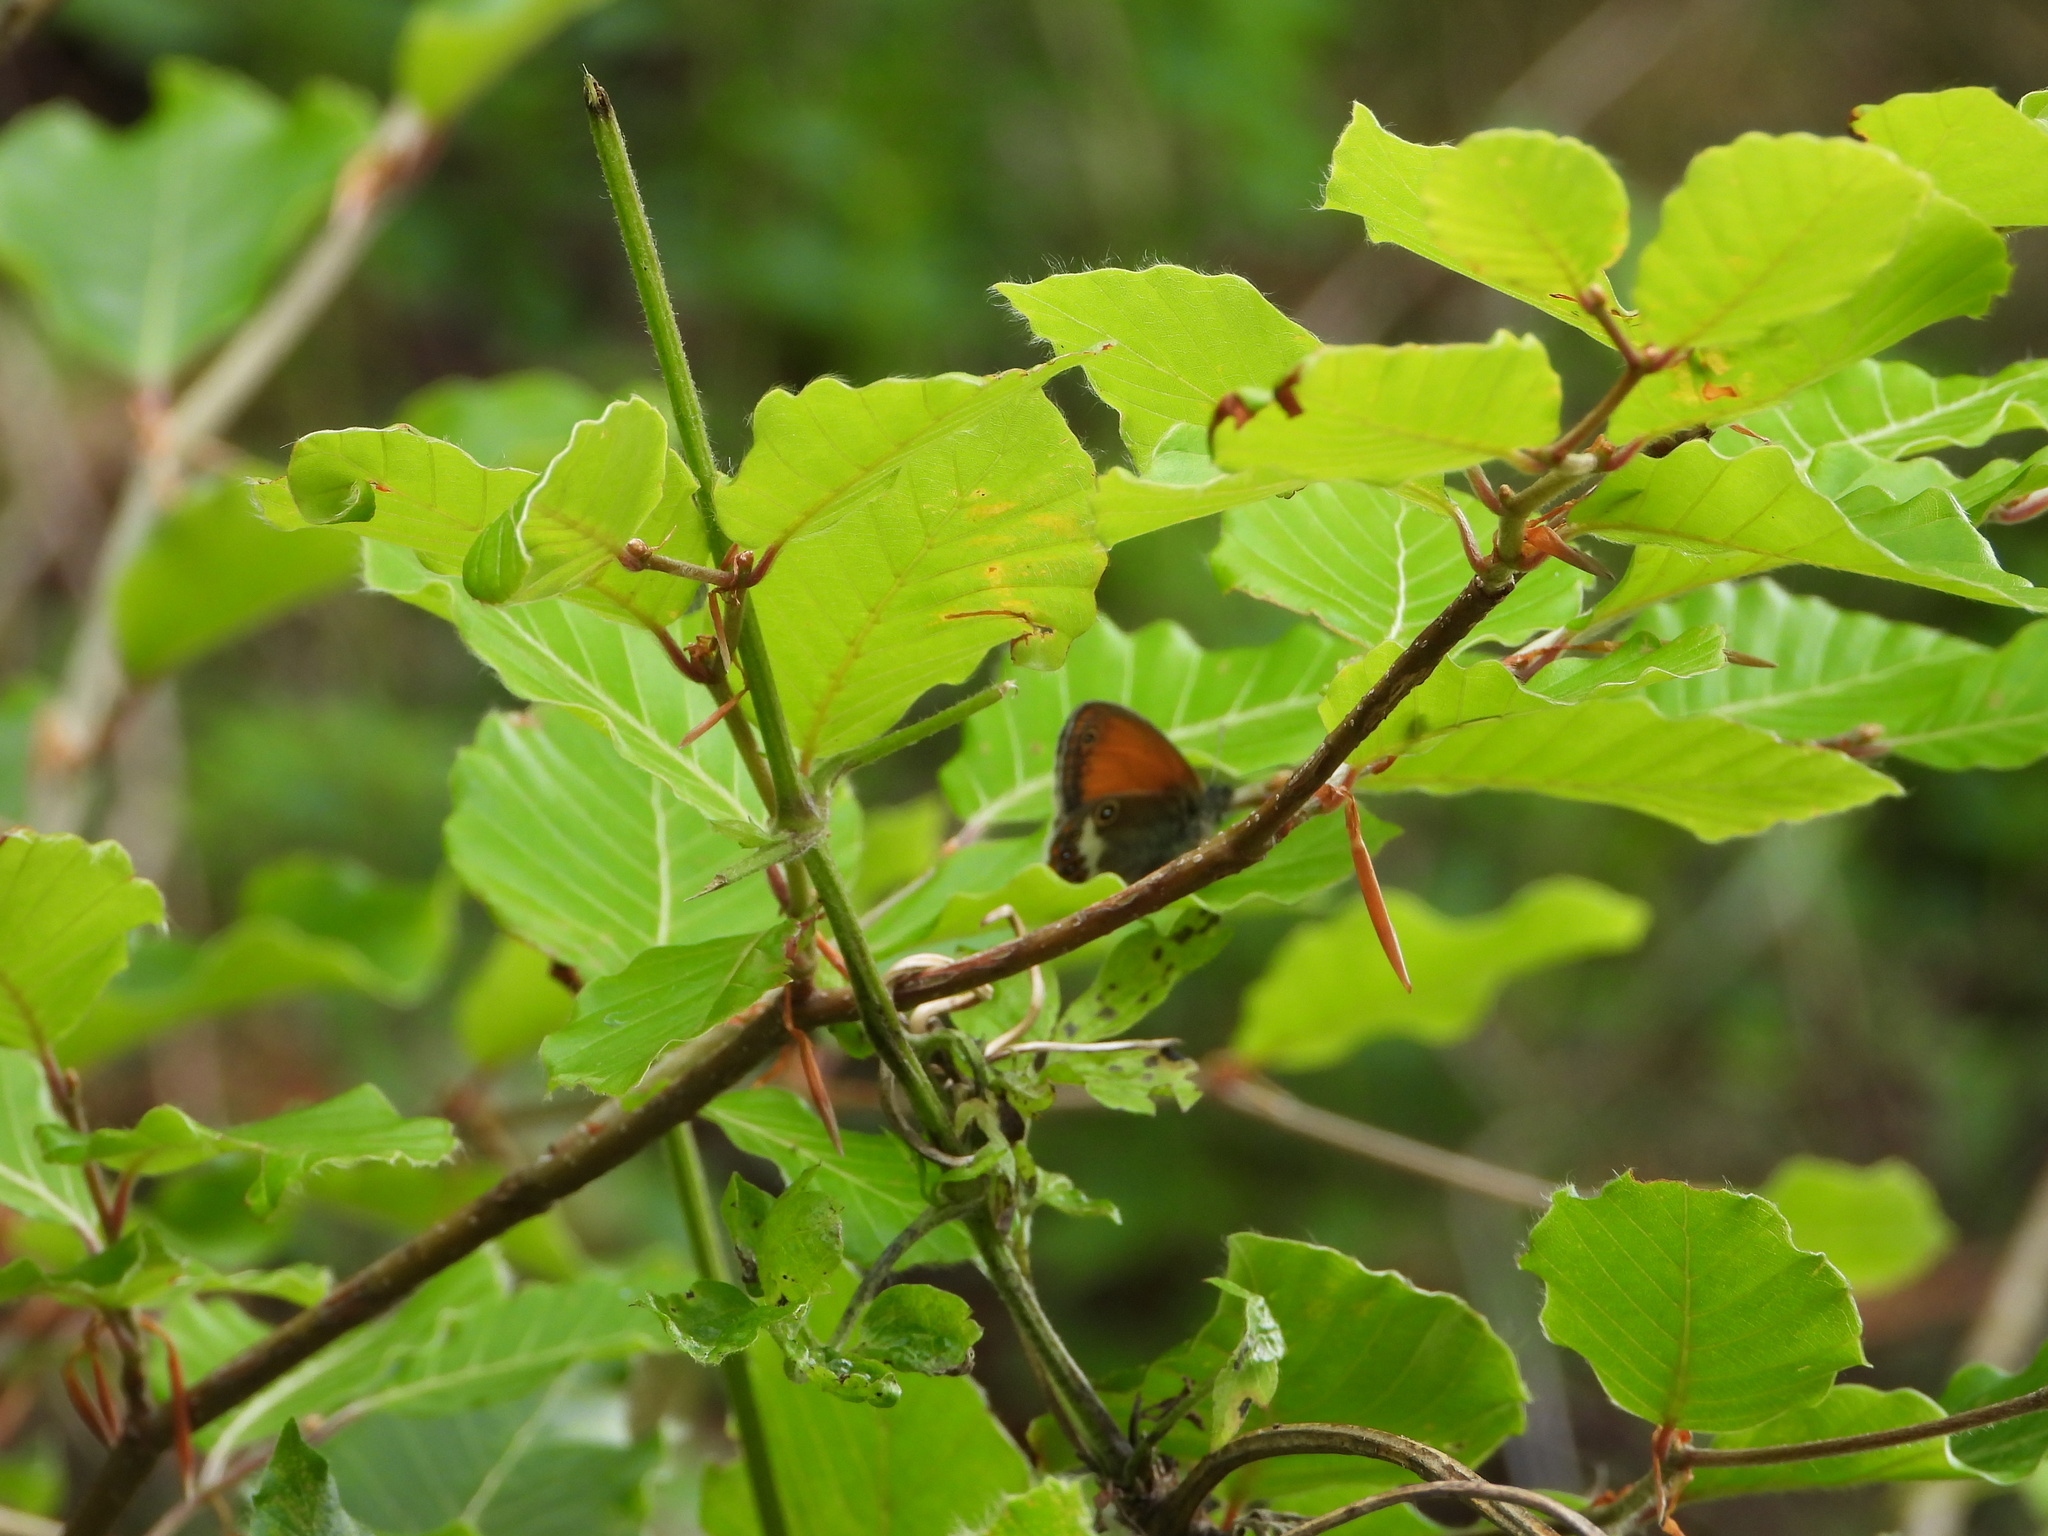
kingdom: Animalia
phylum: Arthropoda
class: Insecta
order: Lepidoptera
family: Nymphalidae
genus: Coenonympha
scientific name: Coenonympha arcania
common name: Pearly heath
